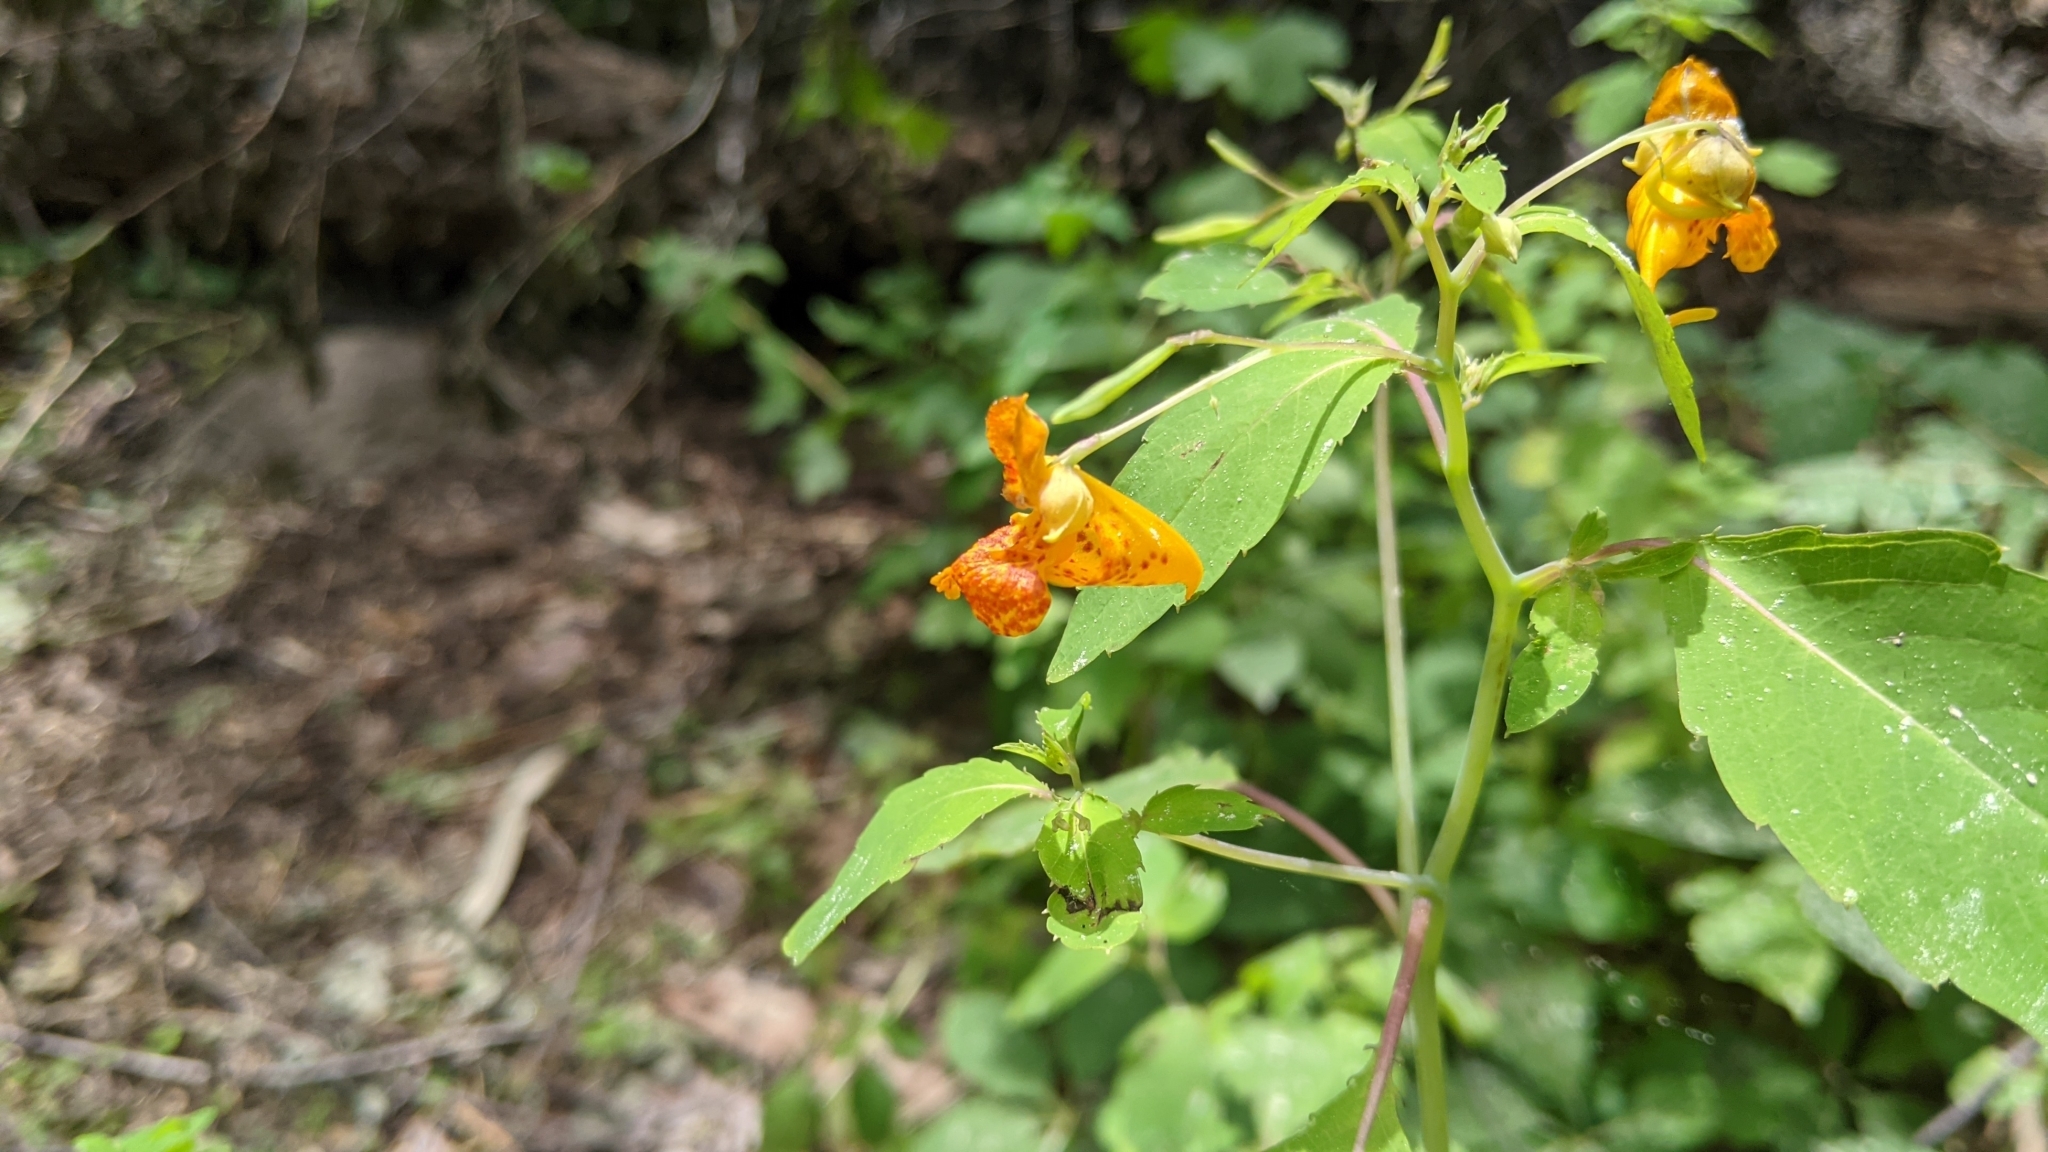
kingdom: Plantae
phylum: Tracheophyta
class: Magnoliopsida
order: Ericales
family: Balsaminaceae
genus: Impatiens
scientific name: Impatiens capensis
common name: Orange balsam
